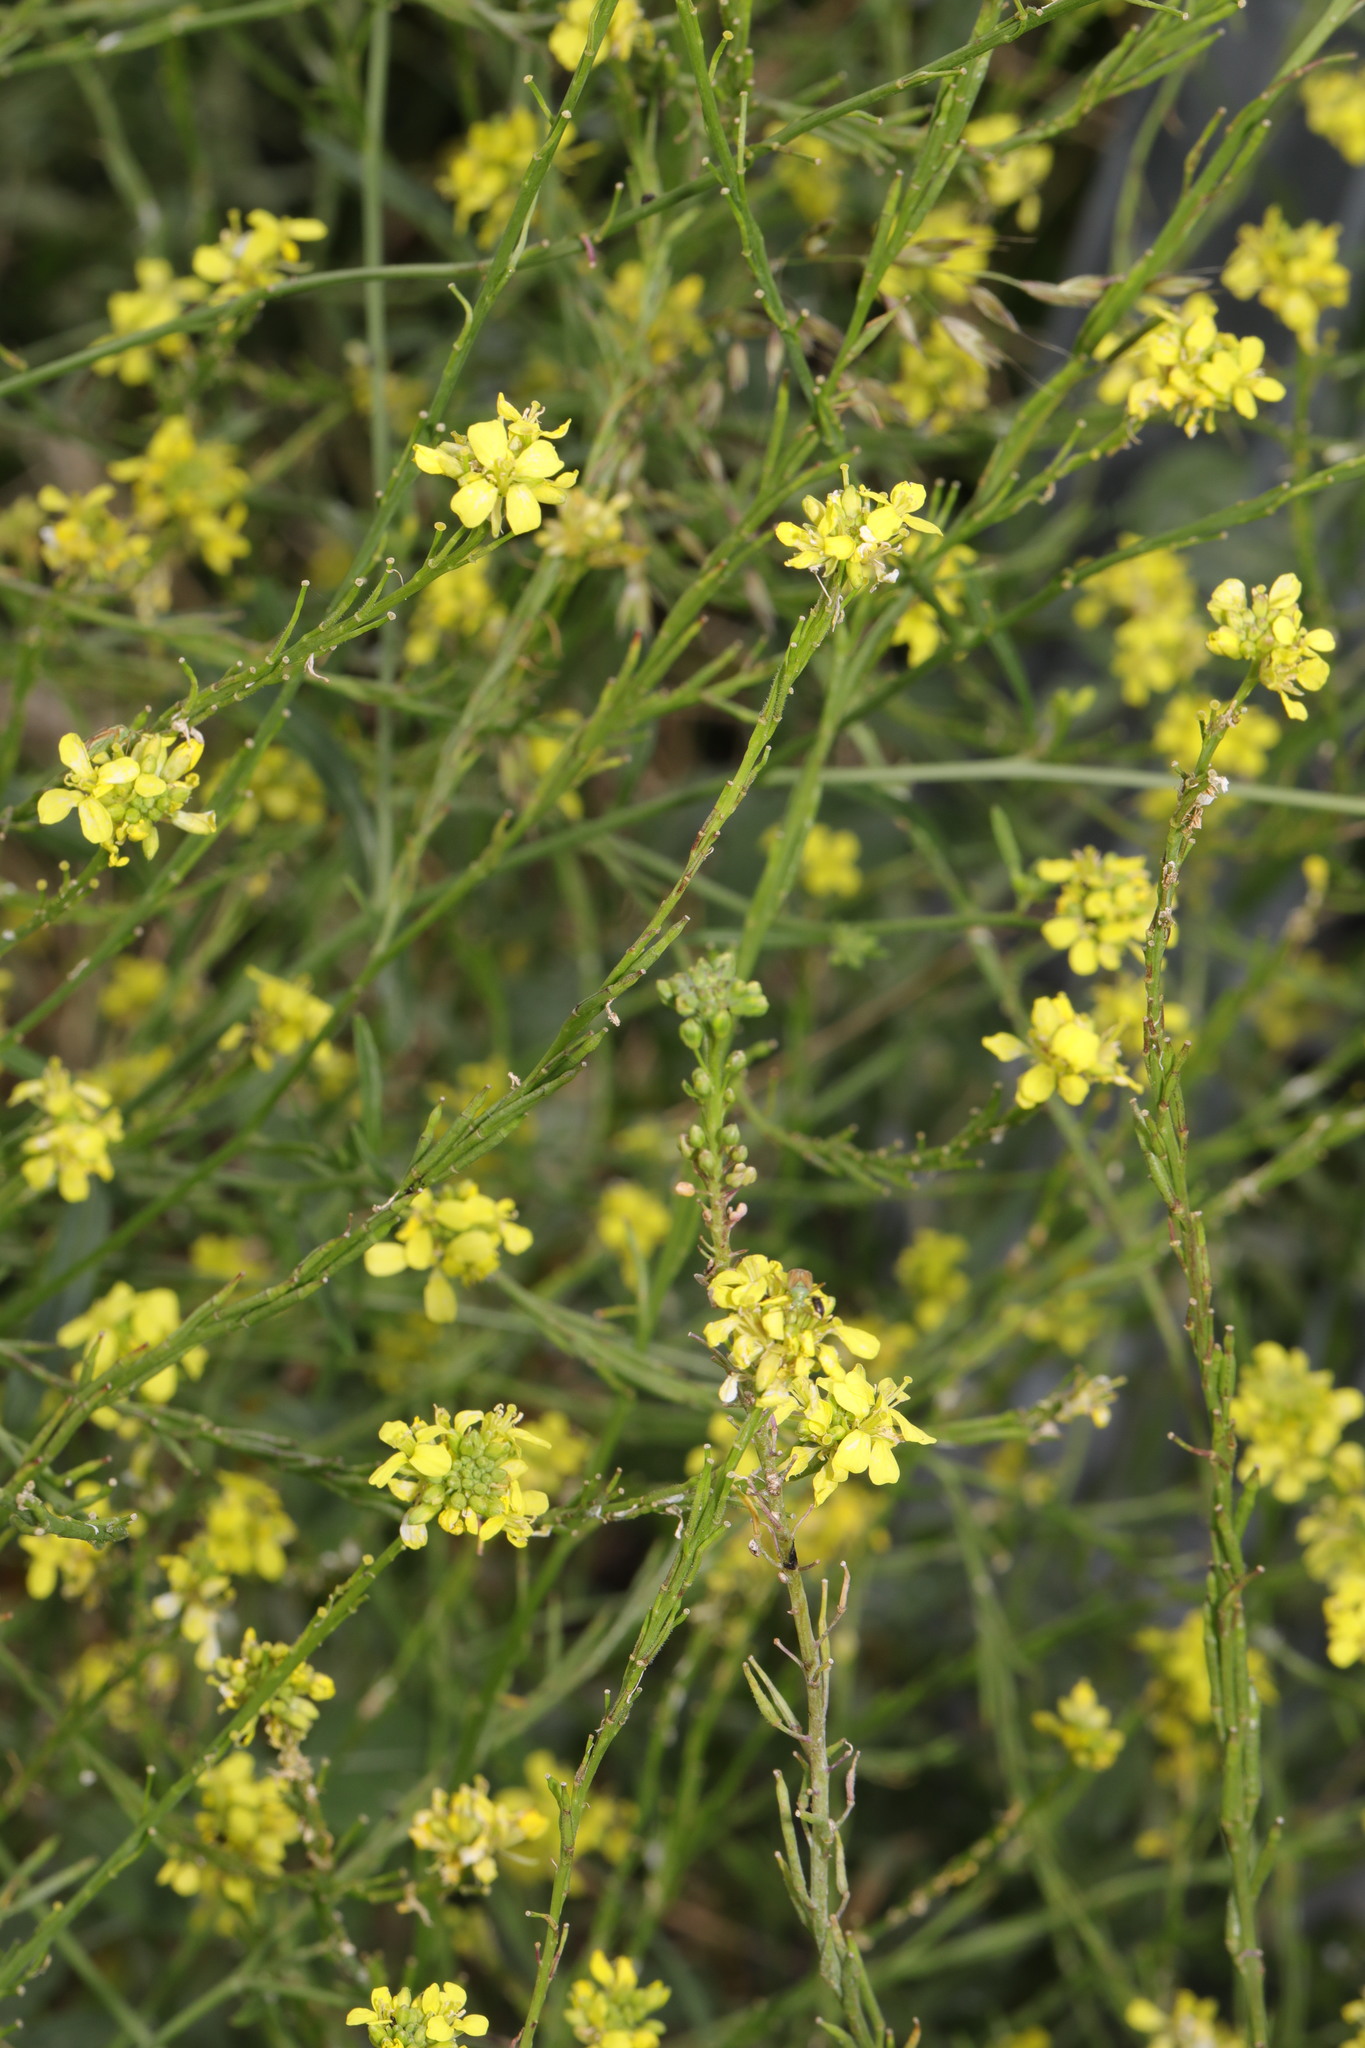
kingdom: Plantae
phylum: Tracheophyta
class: Magnoliopsida
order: Brassicales
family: Brassicaceae
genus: Hirschfeldia
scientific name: Hirschfeldia incana
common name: Hoary mustard
